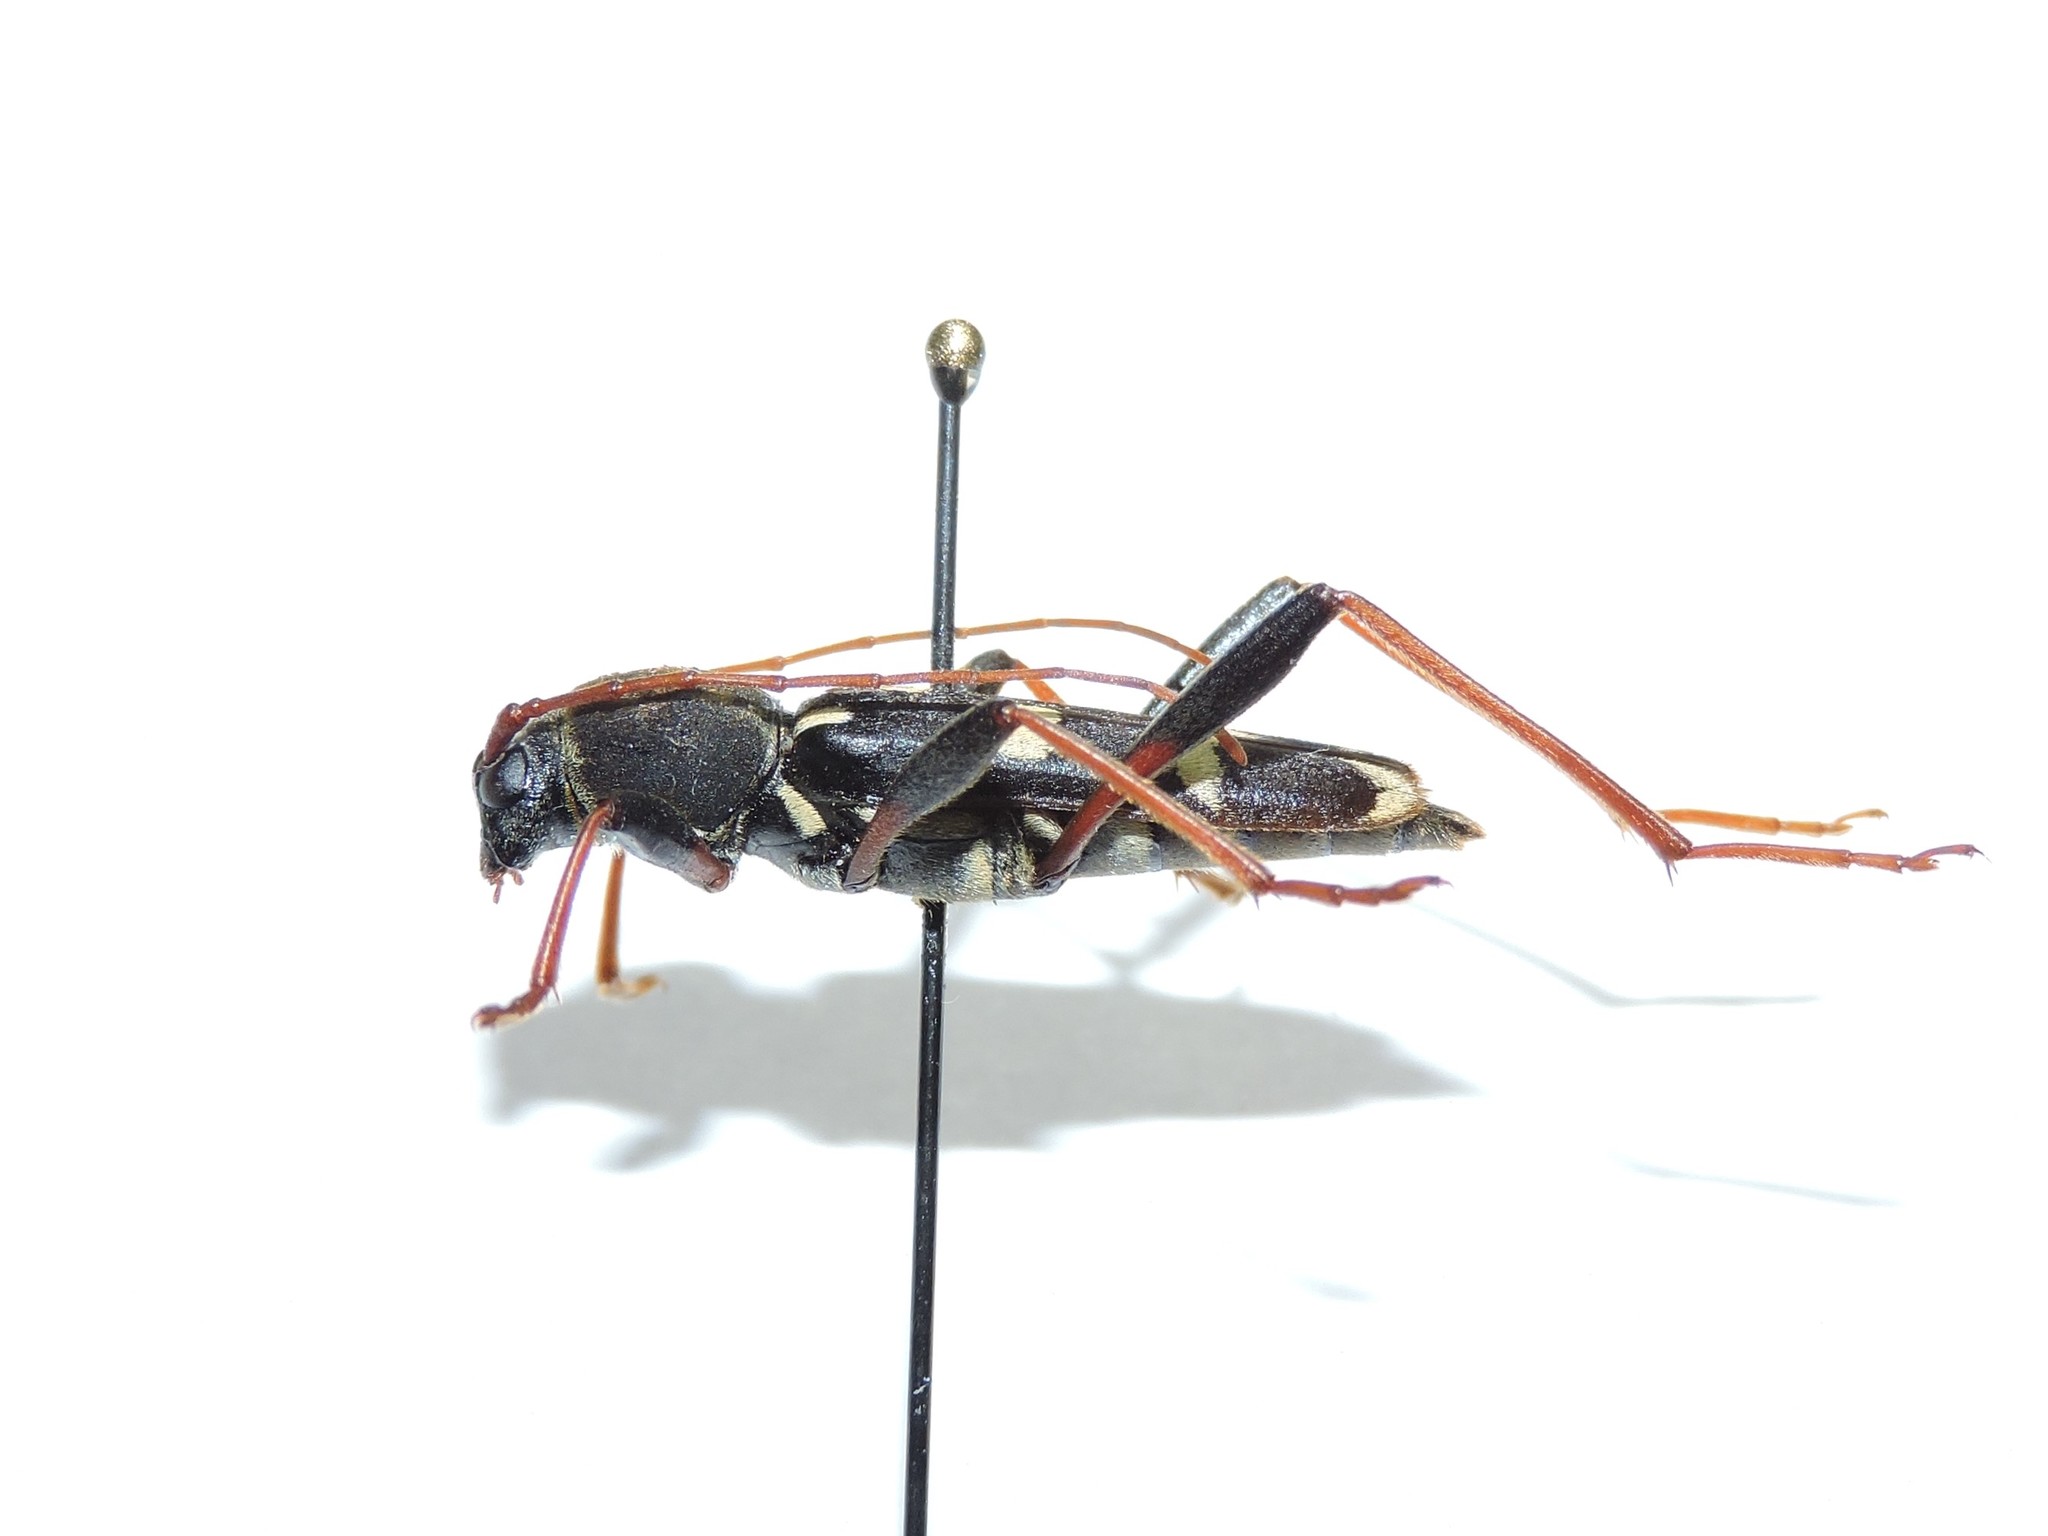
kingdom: Animalia
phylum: Arthropoda
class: Insecta
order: Coleoptera
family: Cerambycidae
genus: Isotomus
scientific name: Isotomus speciosus
